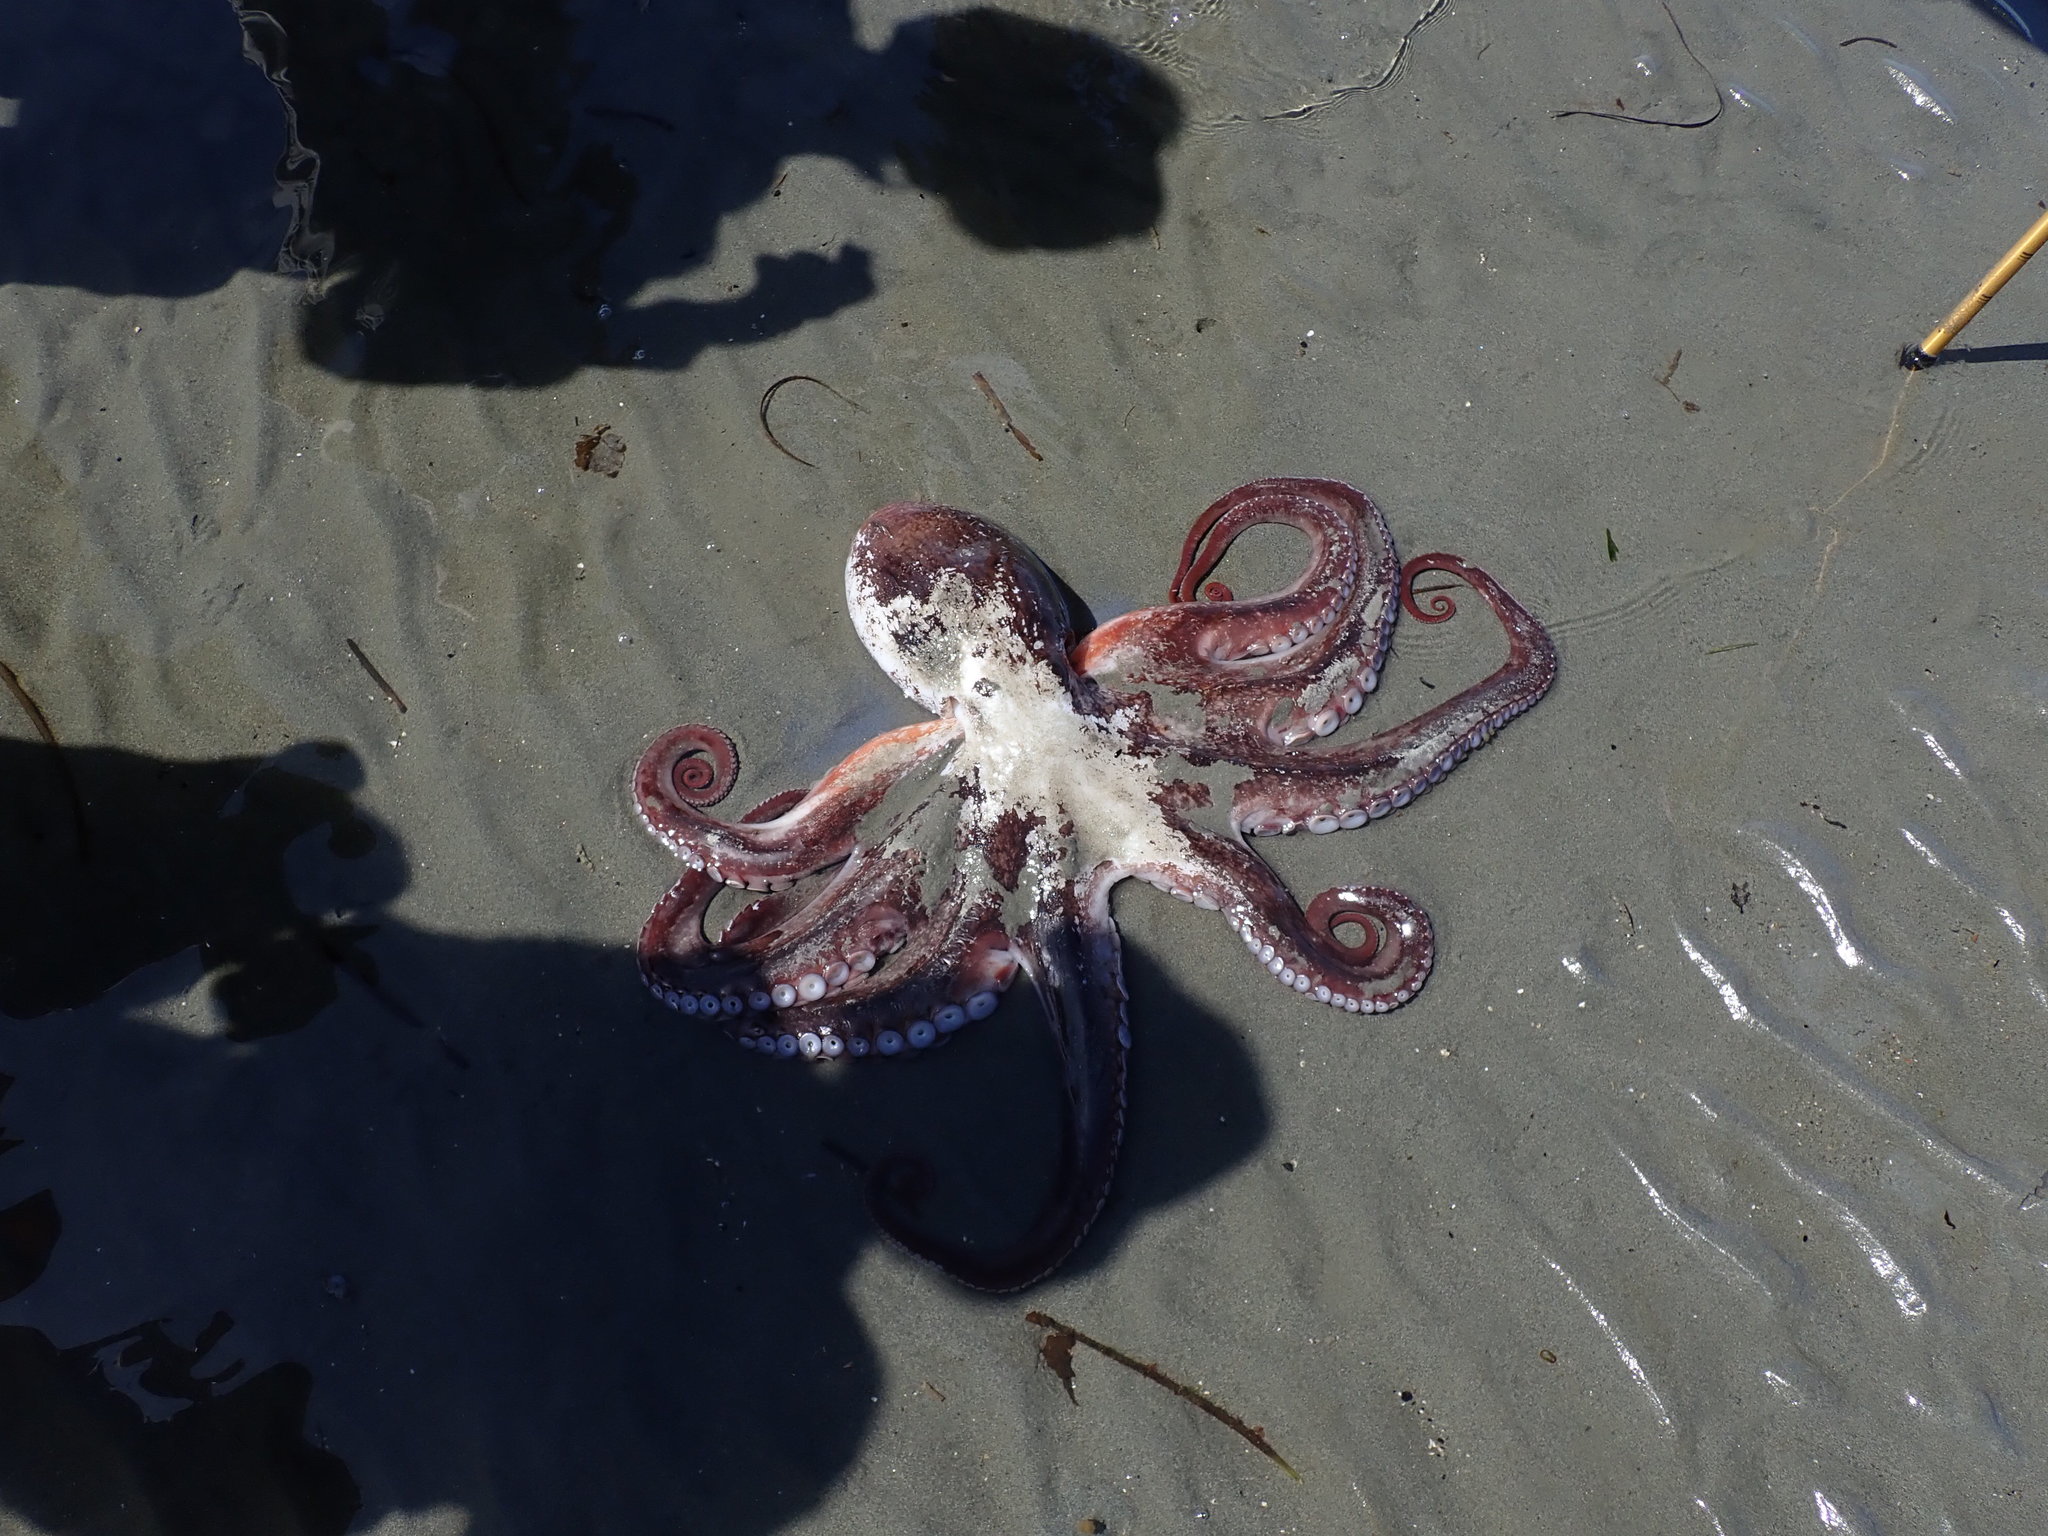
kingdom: Animalia
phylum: Mollusca
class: Cephalopoda
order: Octopoda
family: Enteroctopodidae
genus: Enteroctopus
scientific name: Enteroctopus dofleini
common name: Giant north pacific octopus
